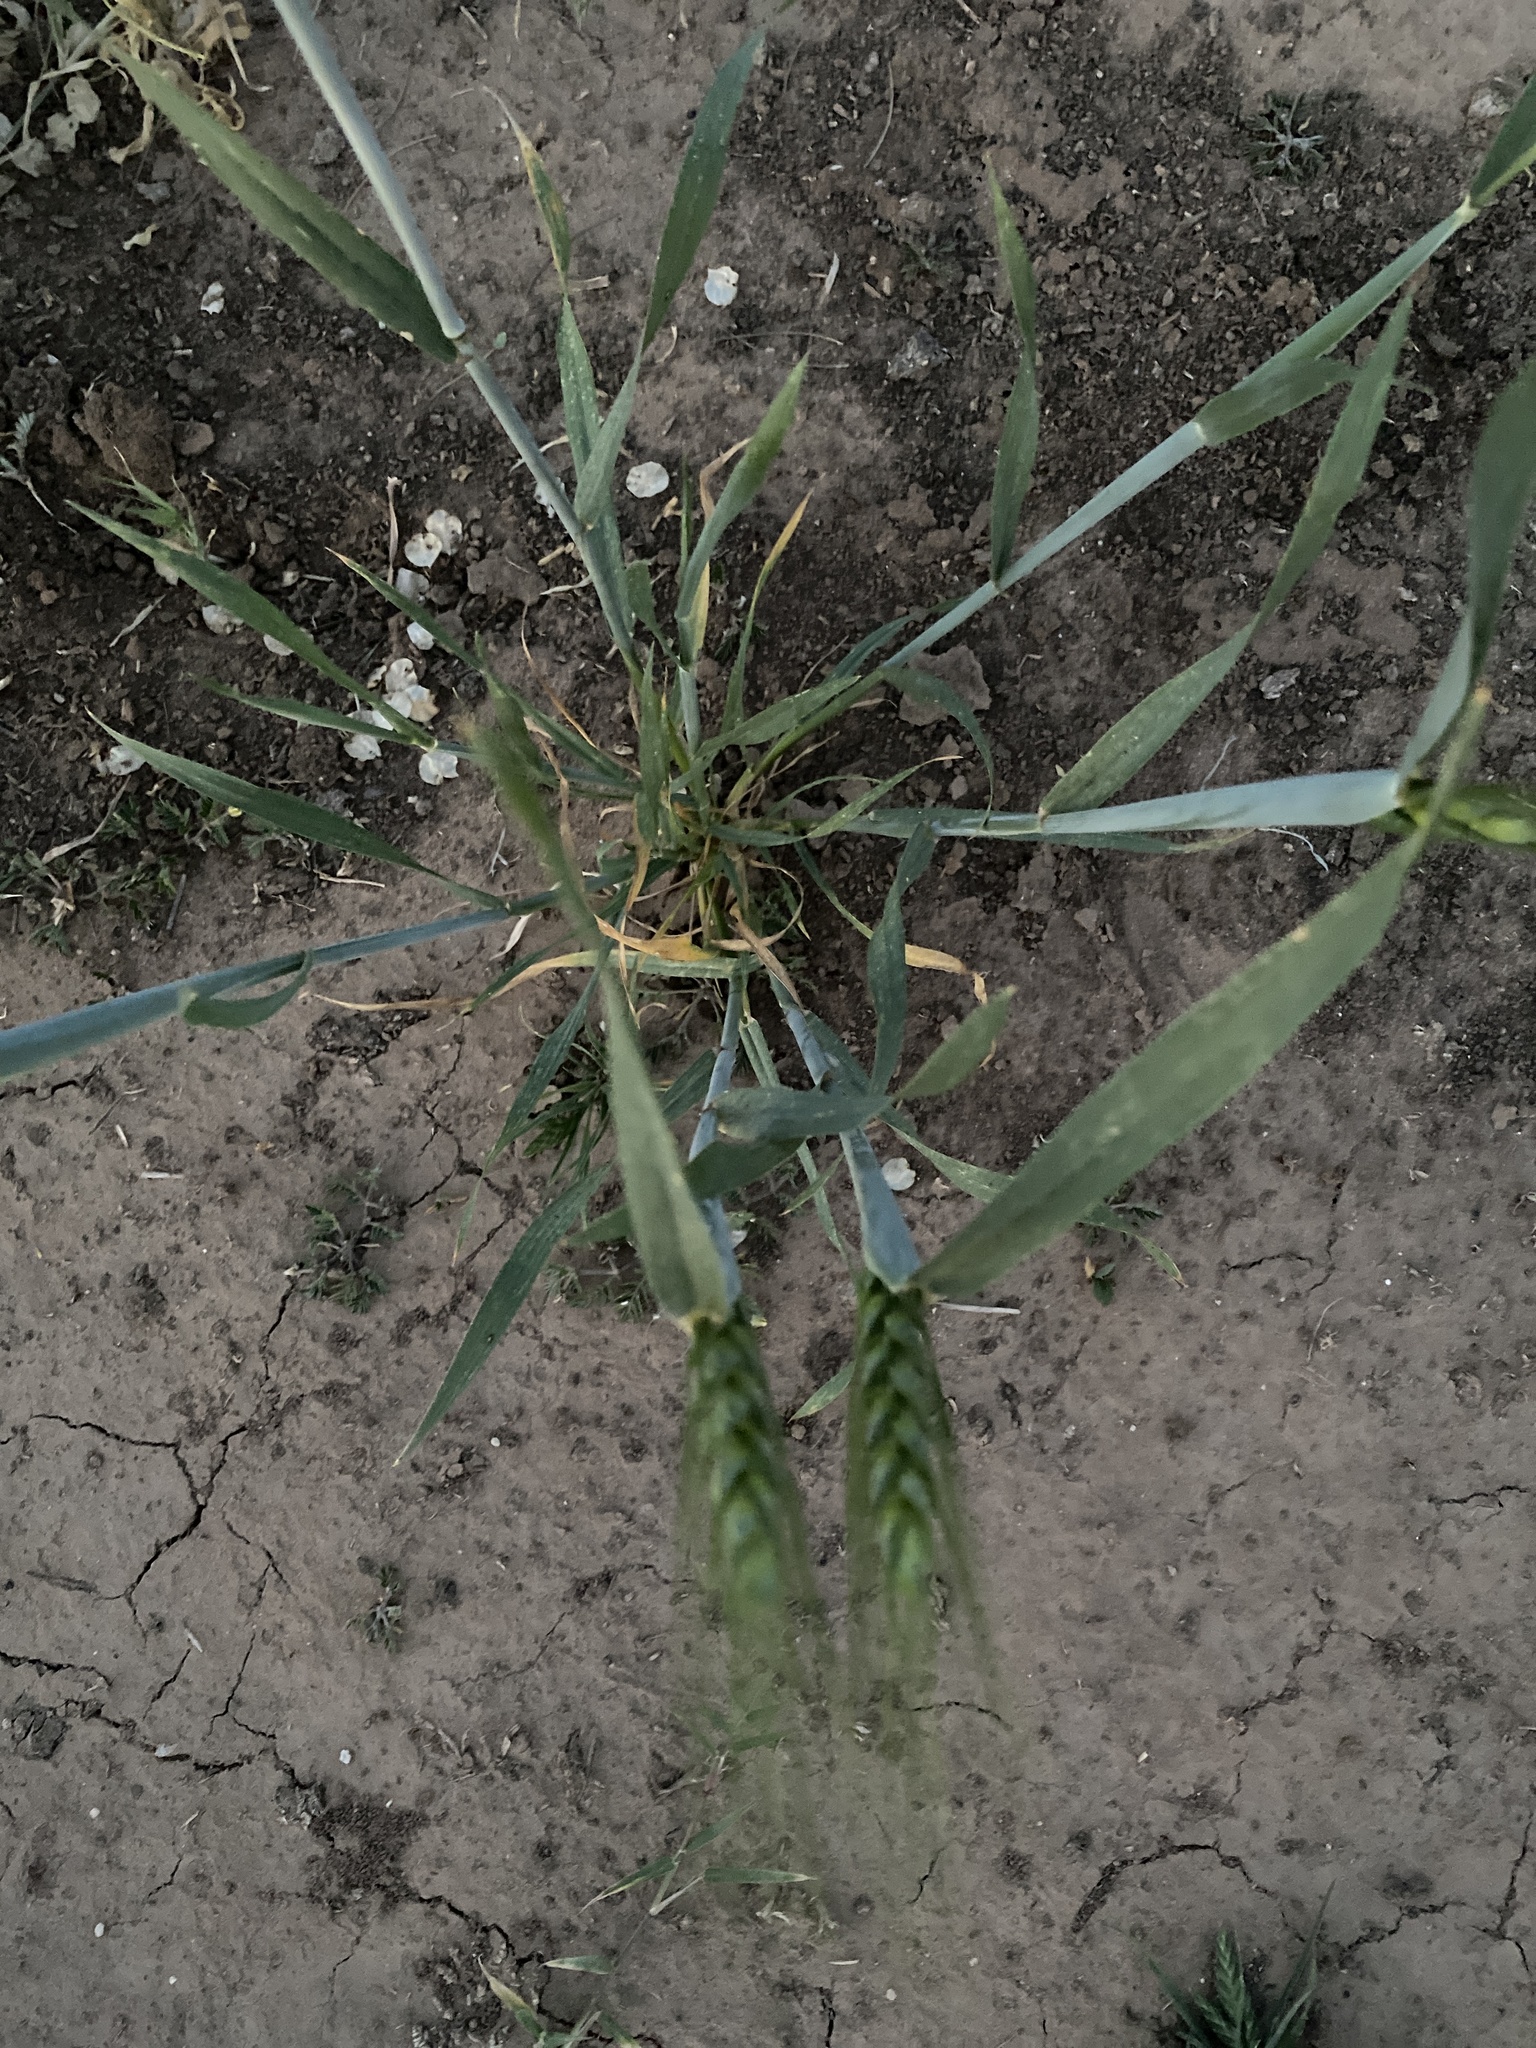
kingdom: Plantae
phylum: Tracheophyta
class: Liliopsida
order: Poales
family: Poaceae
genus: Triticum
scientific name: Triticum aestivum
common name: Common wheat
